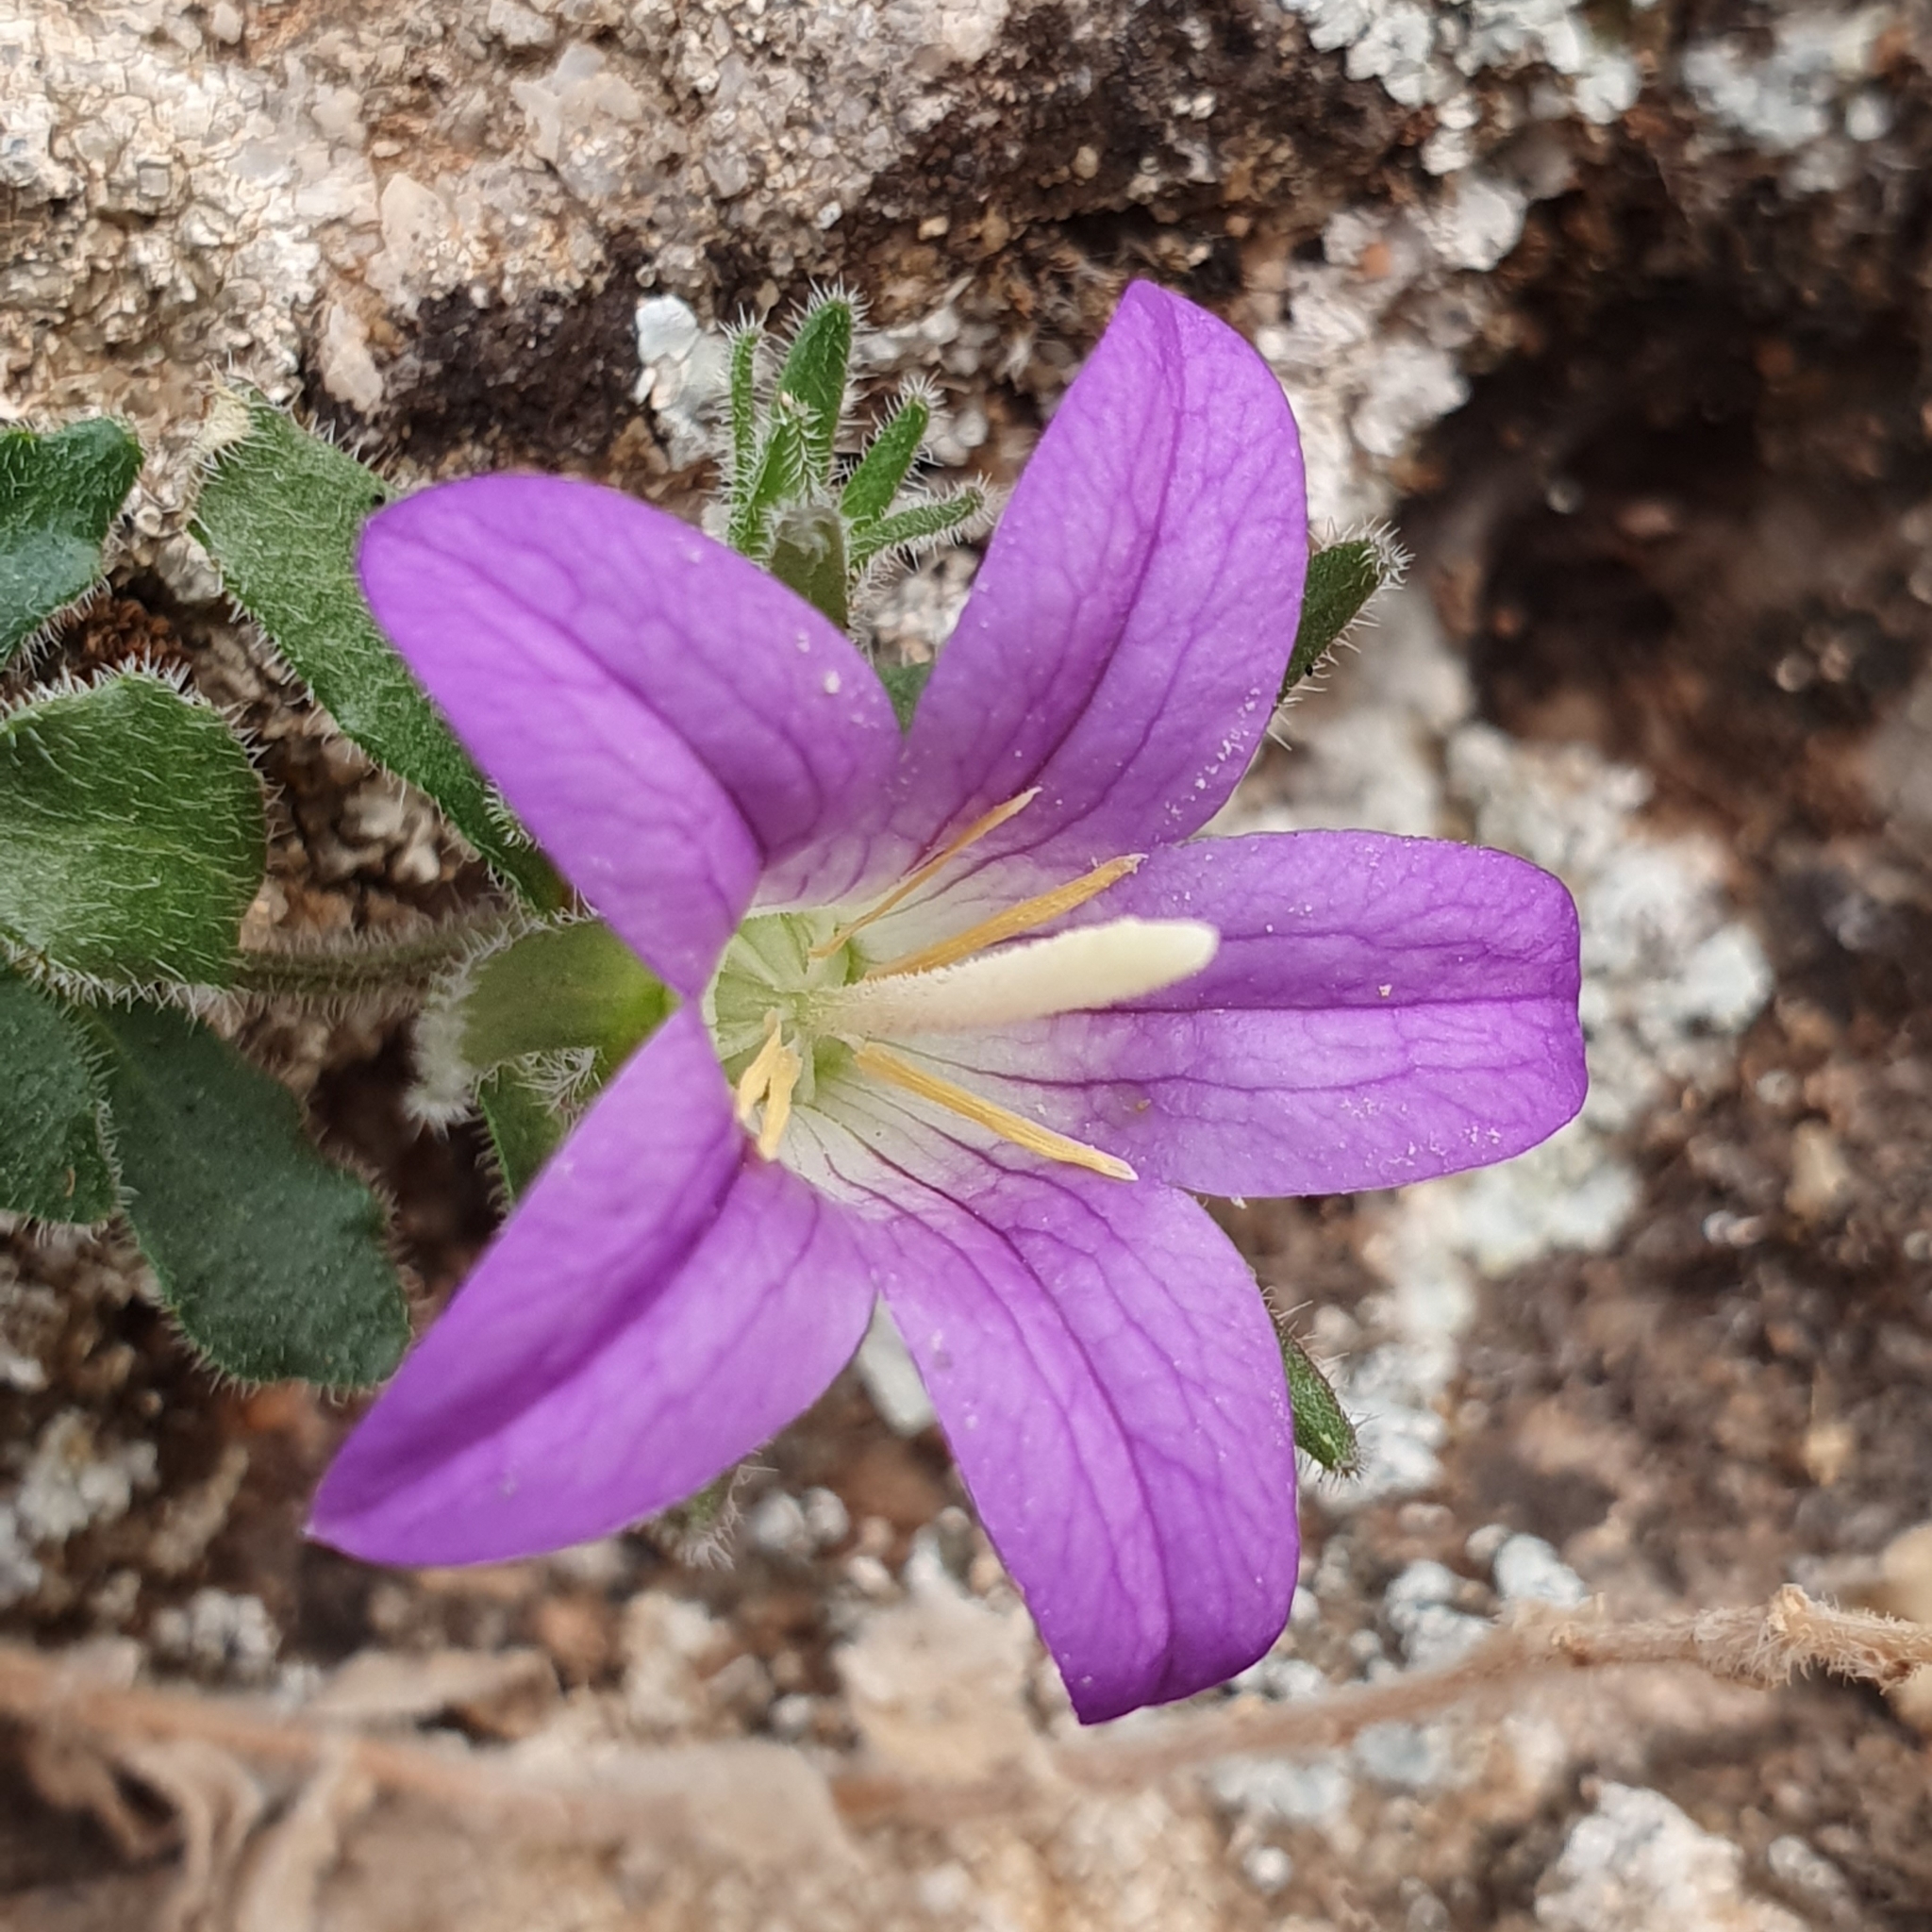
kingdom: Plantae
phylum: Tracheophyta
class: Magnoliopsida
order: Asterales
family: Campanulaceae
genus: Campanula
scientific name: Campanula numidica
